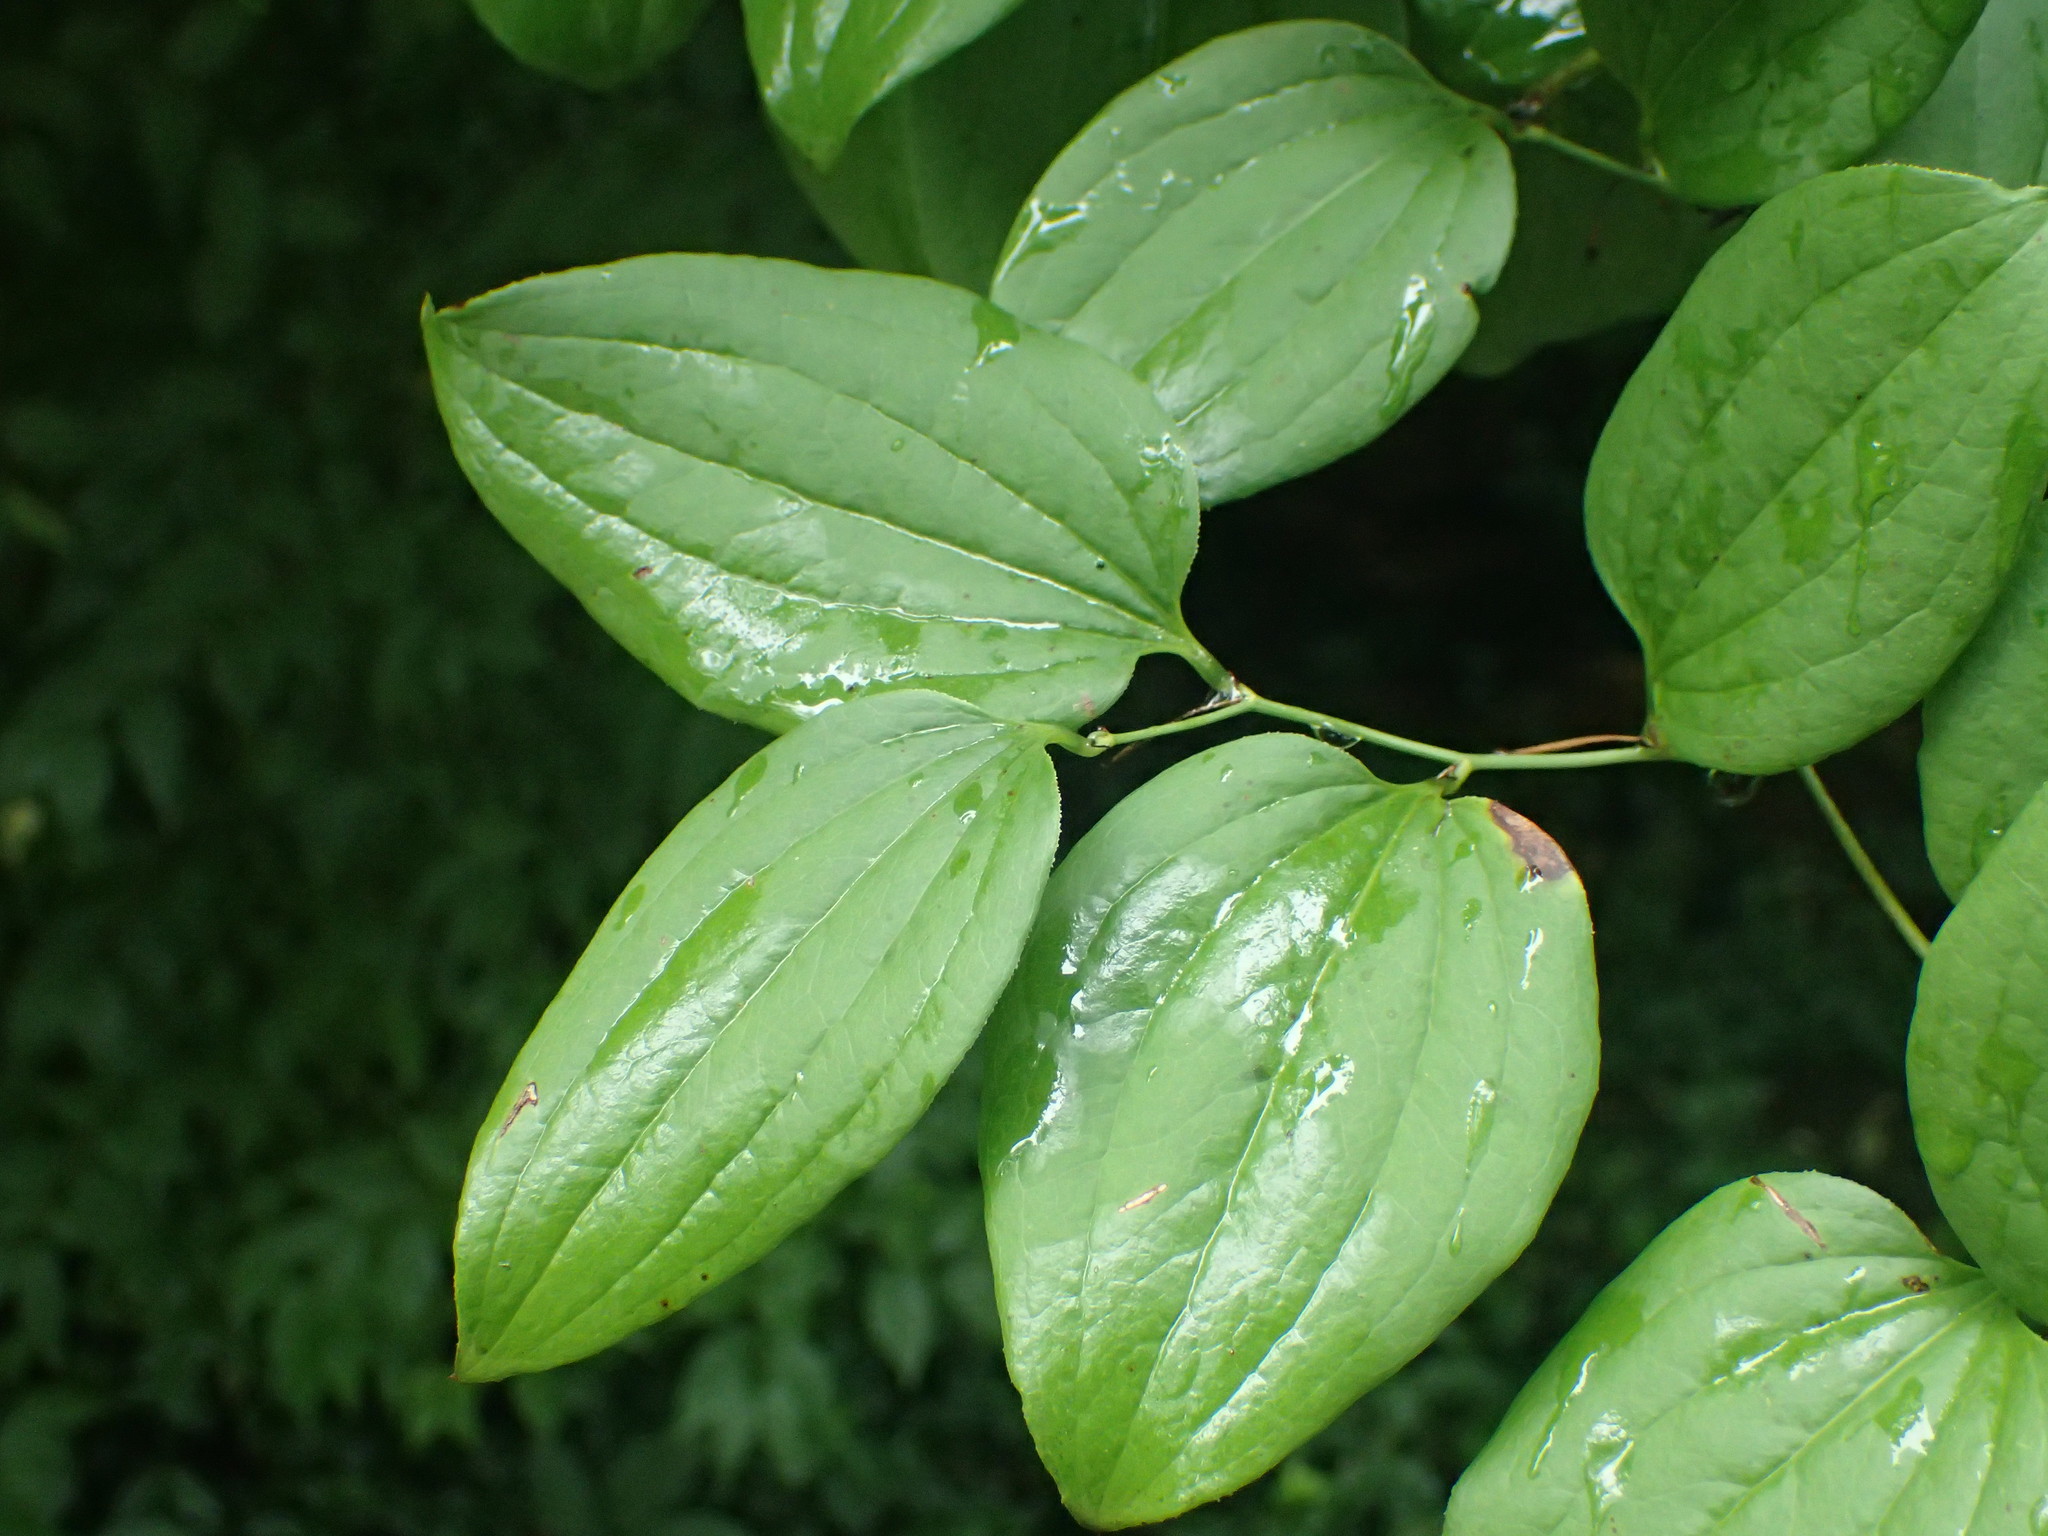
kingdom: Plantae
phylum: Tracheophyta
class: Liliopsida
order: Liliales
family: Smilacaceae
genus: Smilax
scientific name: Smilax
